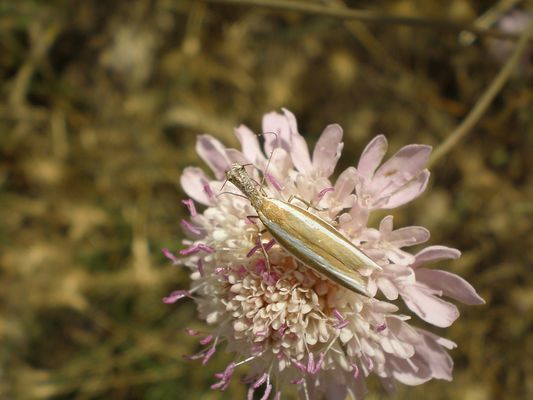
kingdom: Animalia
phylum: Arthropoda
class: Insecta
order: Lepidoptera
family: Oecophoridae
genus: Pleurota
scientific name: Pleurota aristella
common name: Southern streak
